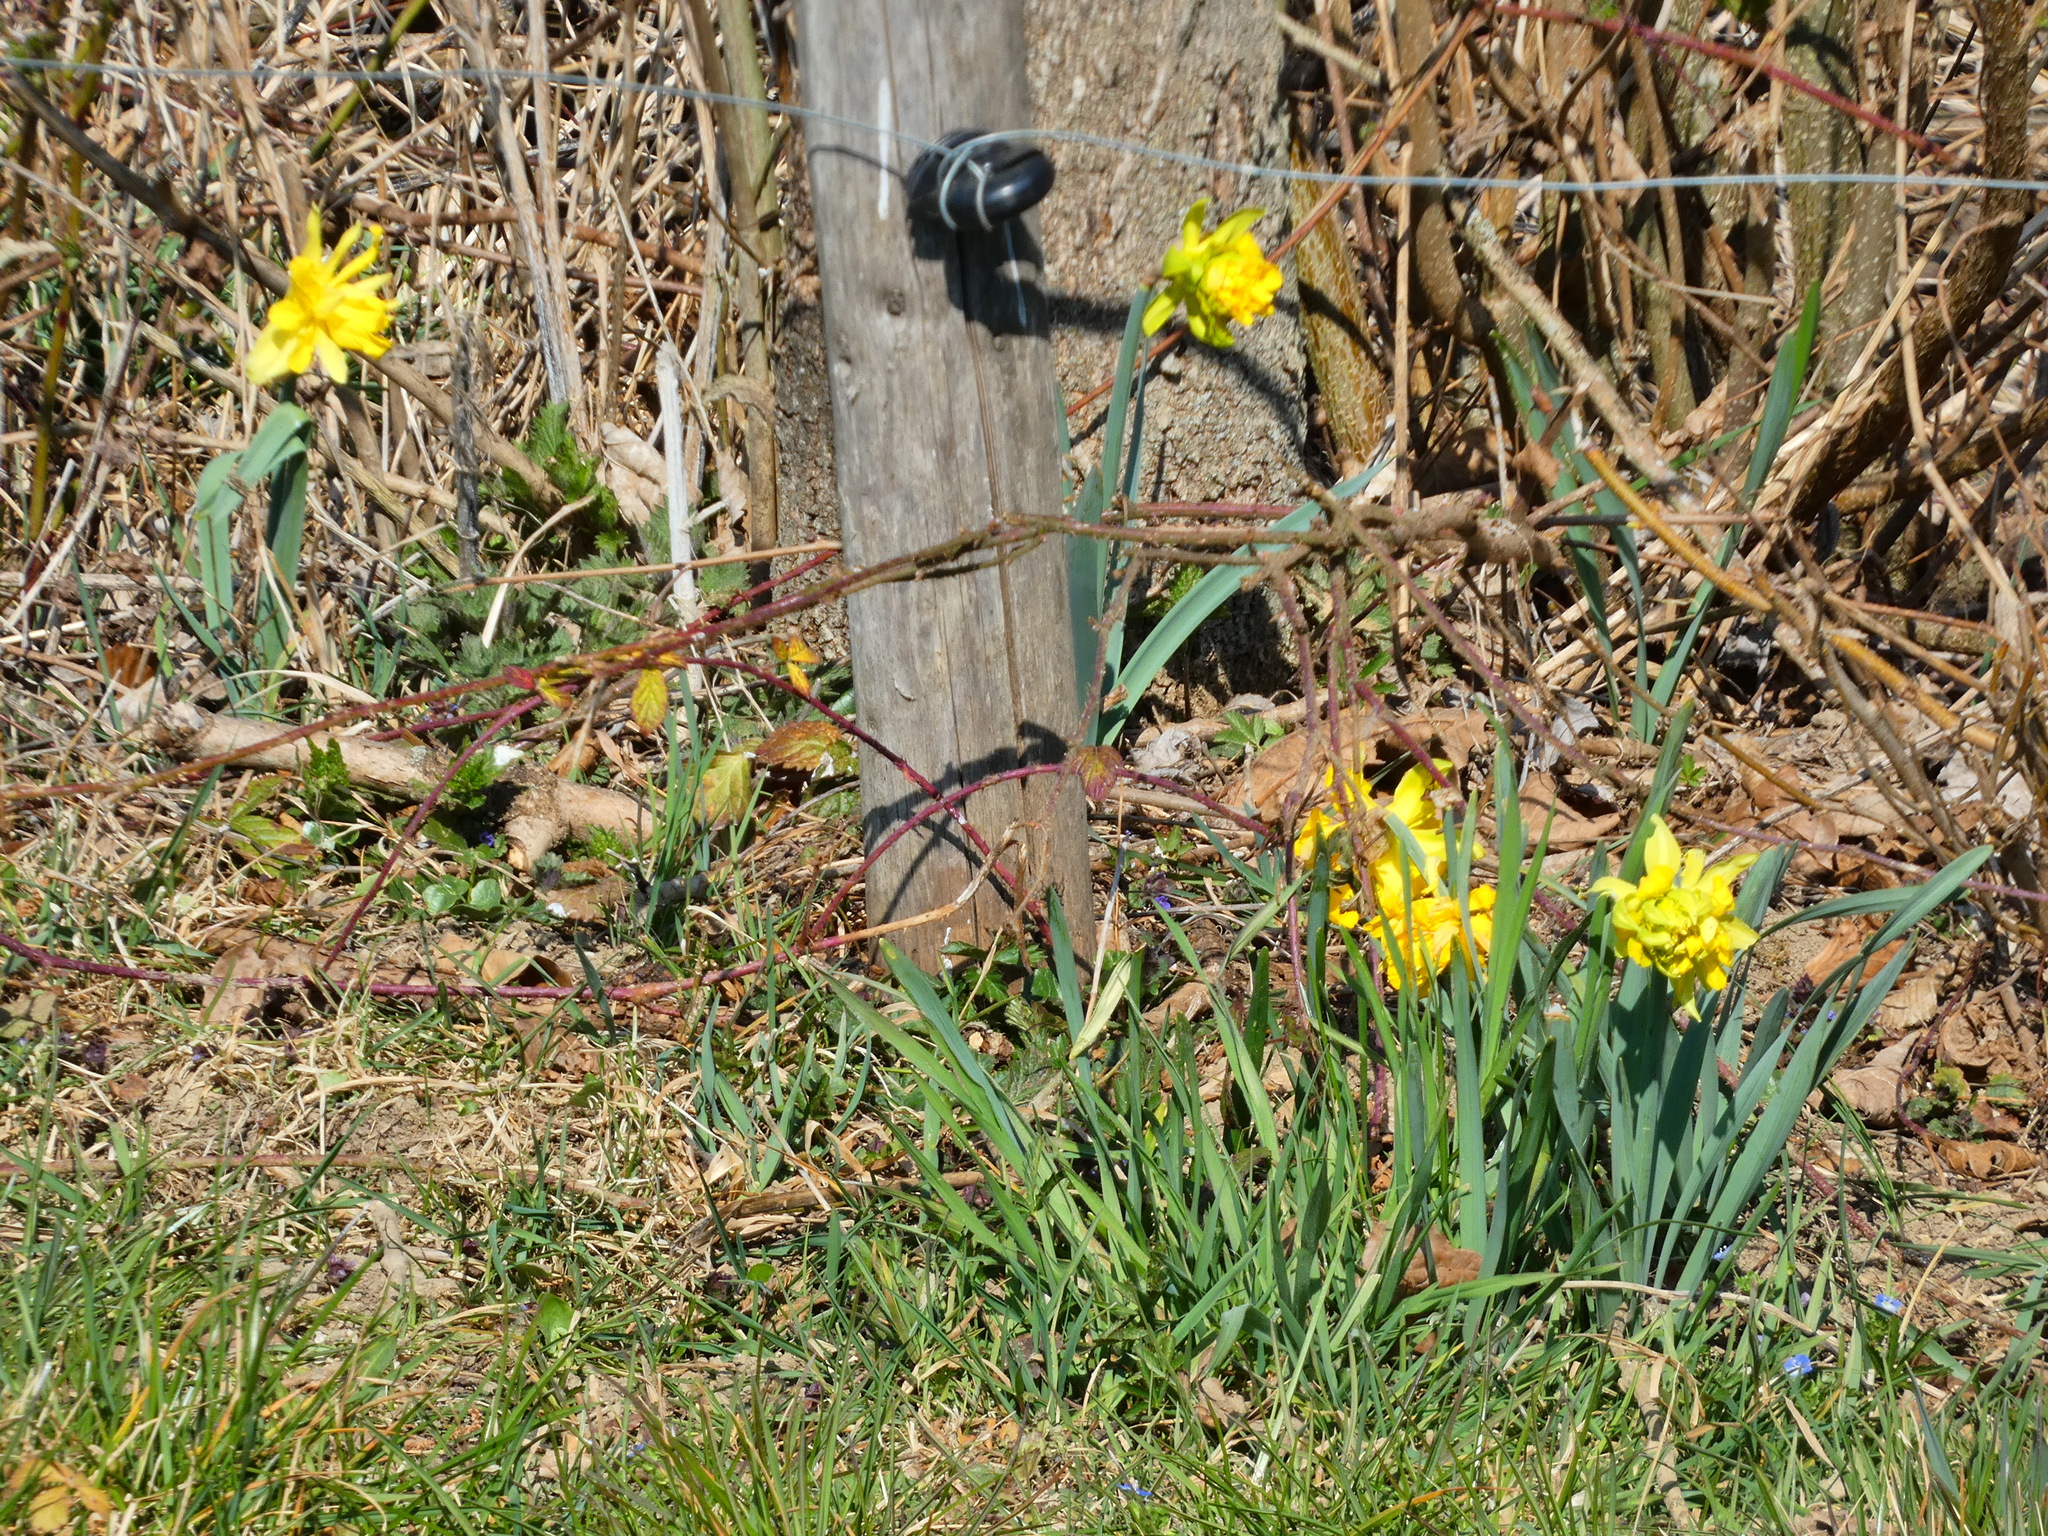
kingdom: Plantae
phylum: Tracheophyta
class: Liliopsida
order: Asparagales
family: Amaryllidaceae
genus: Narcissus
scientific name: Narcissus pseudonarcissus
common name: Daffodil
